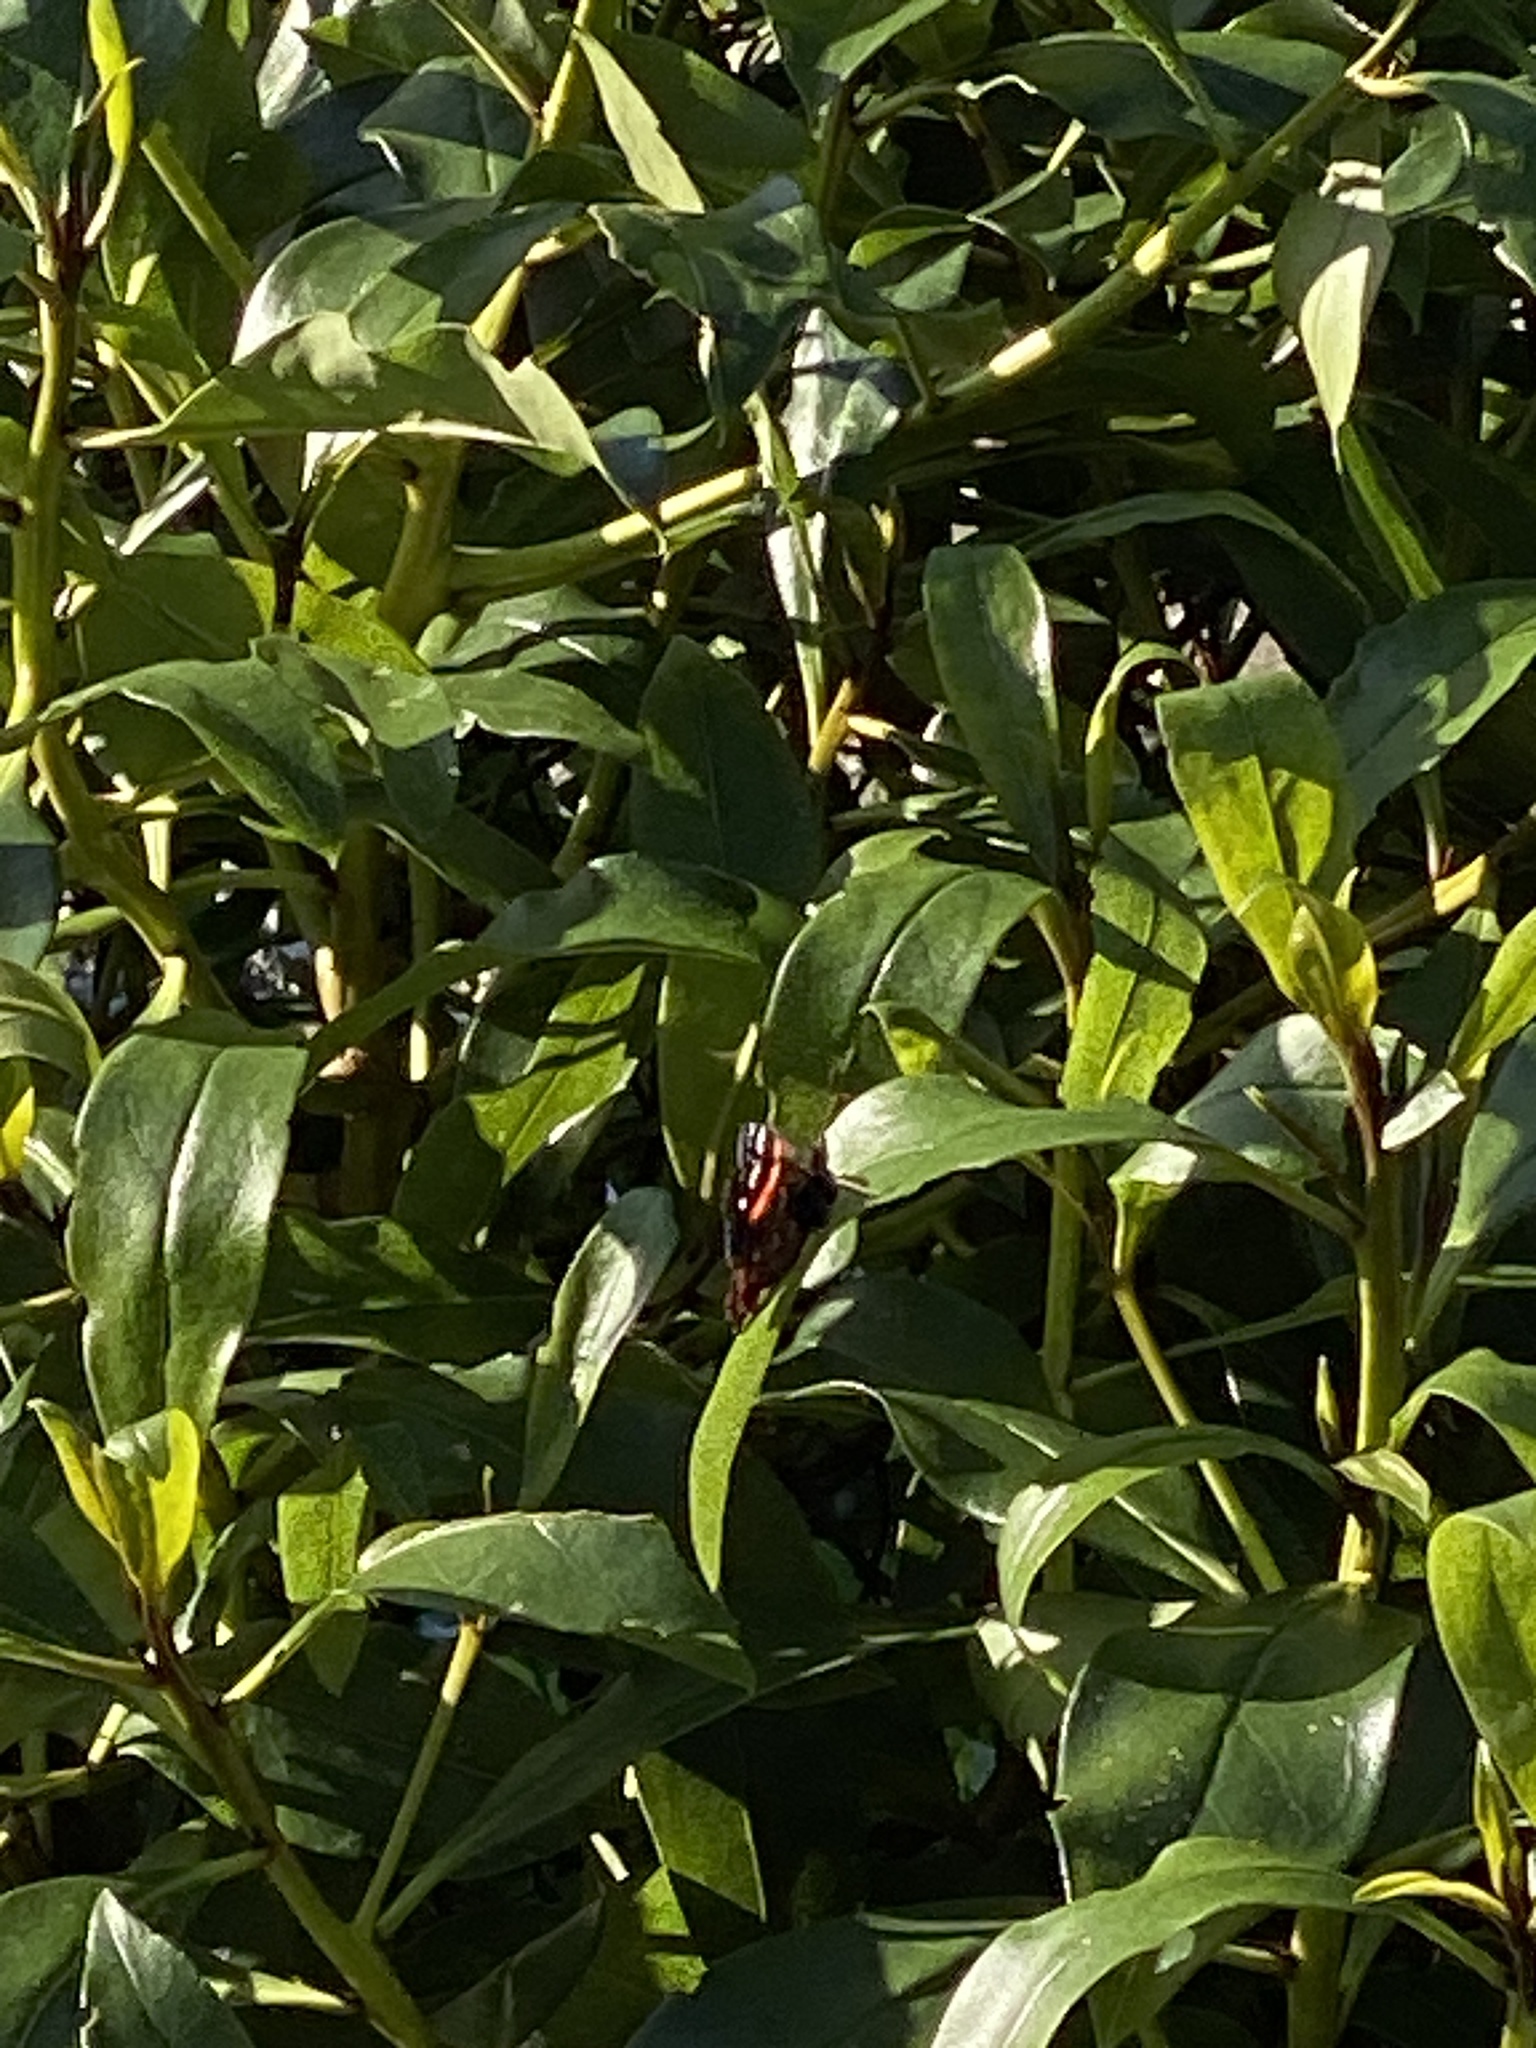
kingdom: Animalia
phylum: Arthropoda
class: Insecta
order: Lepidoptera
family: Nymphalidae
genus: Vanessa
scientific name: Vanessa gonerilla
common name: New zealand red admiral
